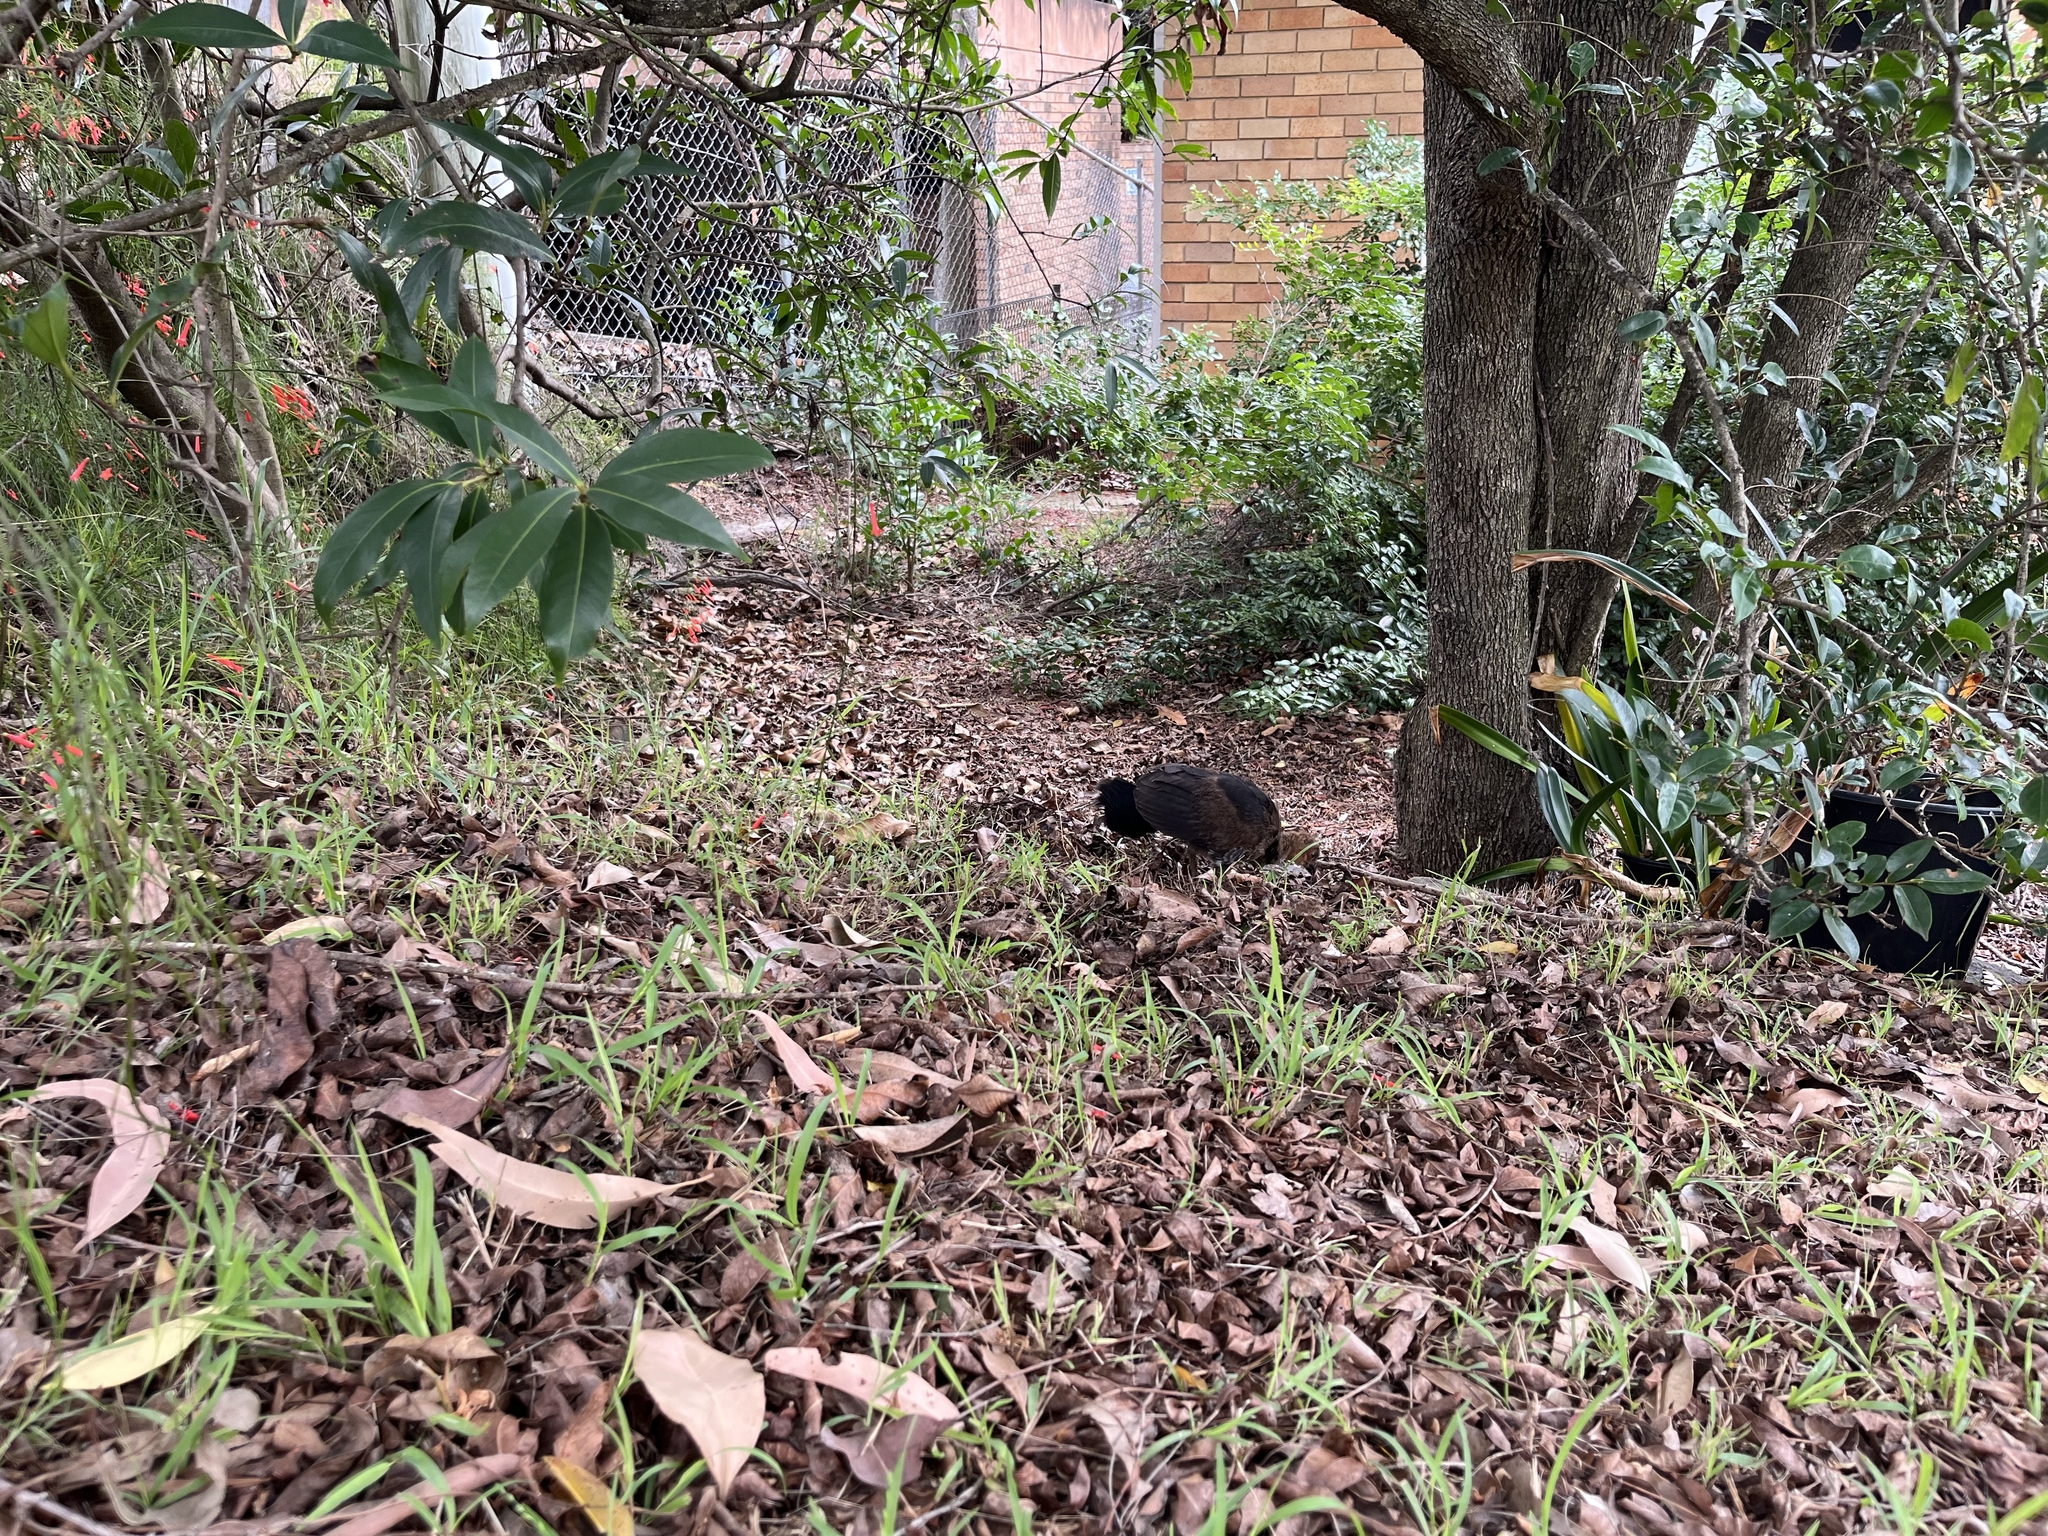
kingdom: Animalia
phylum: Chordata
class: Aves
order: Galliformes
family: Megapodiidae
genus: Alectura
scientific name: Alectura lathami
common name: Australian brushturkey
